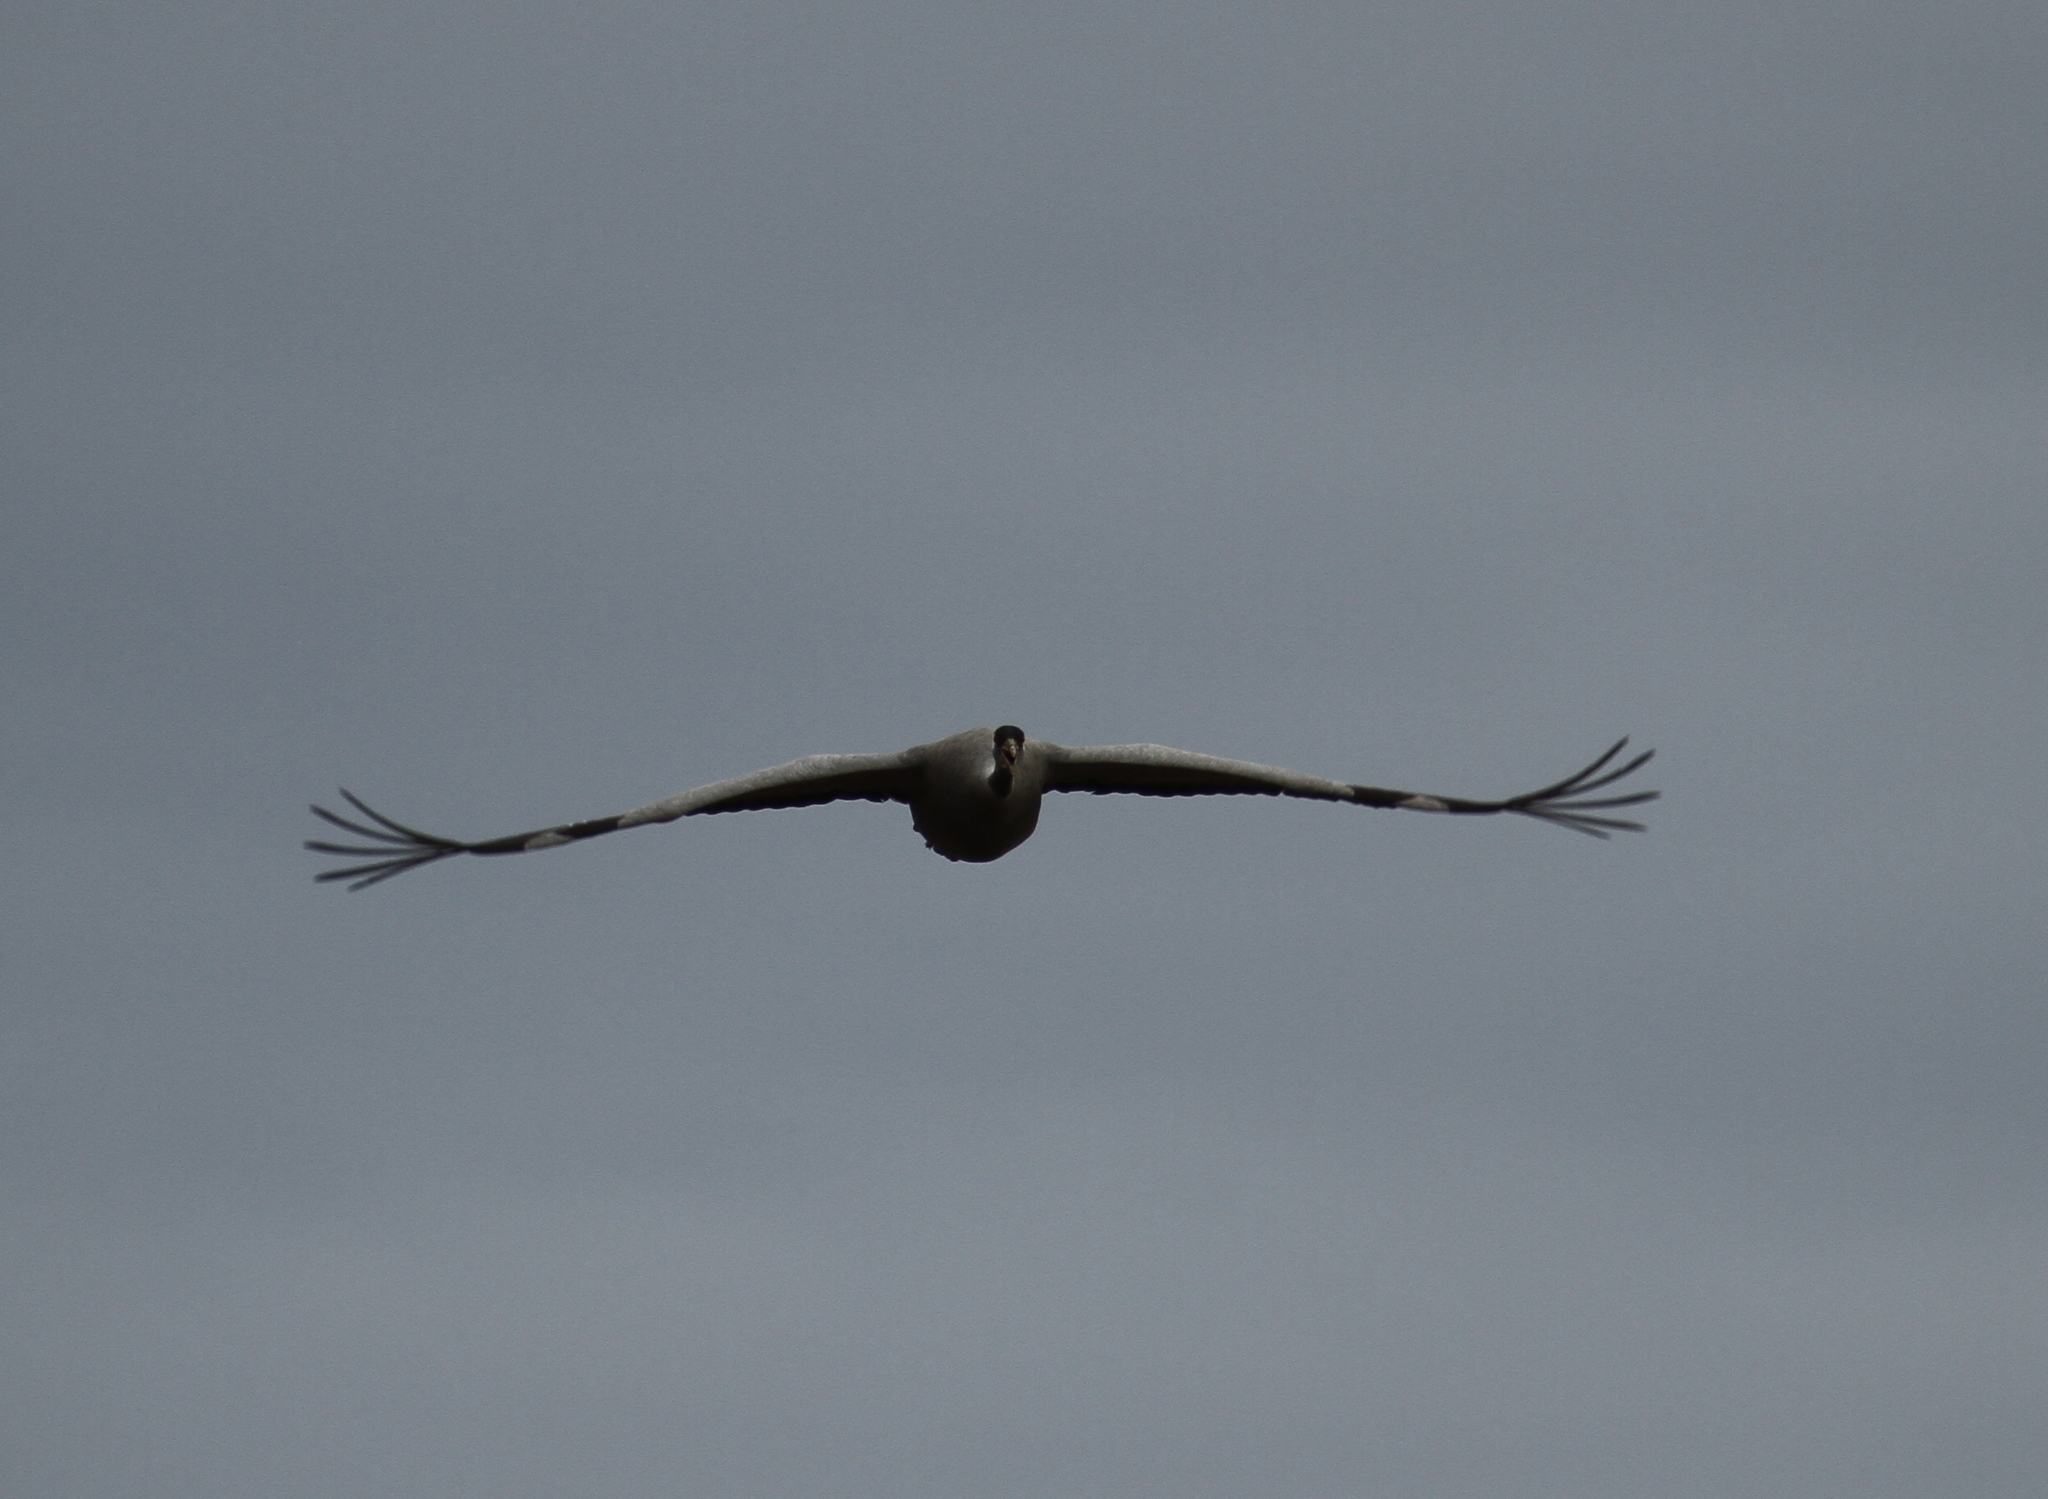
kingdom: Animalia
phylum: Chordata
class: Aves
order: Gruiformes
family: Gruidae
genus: Grus
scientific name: Grus grus
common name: Common crane
